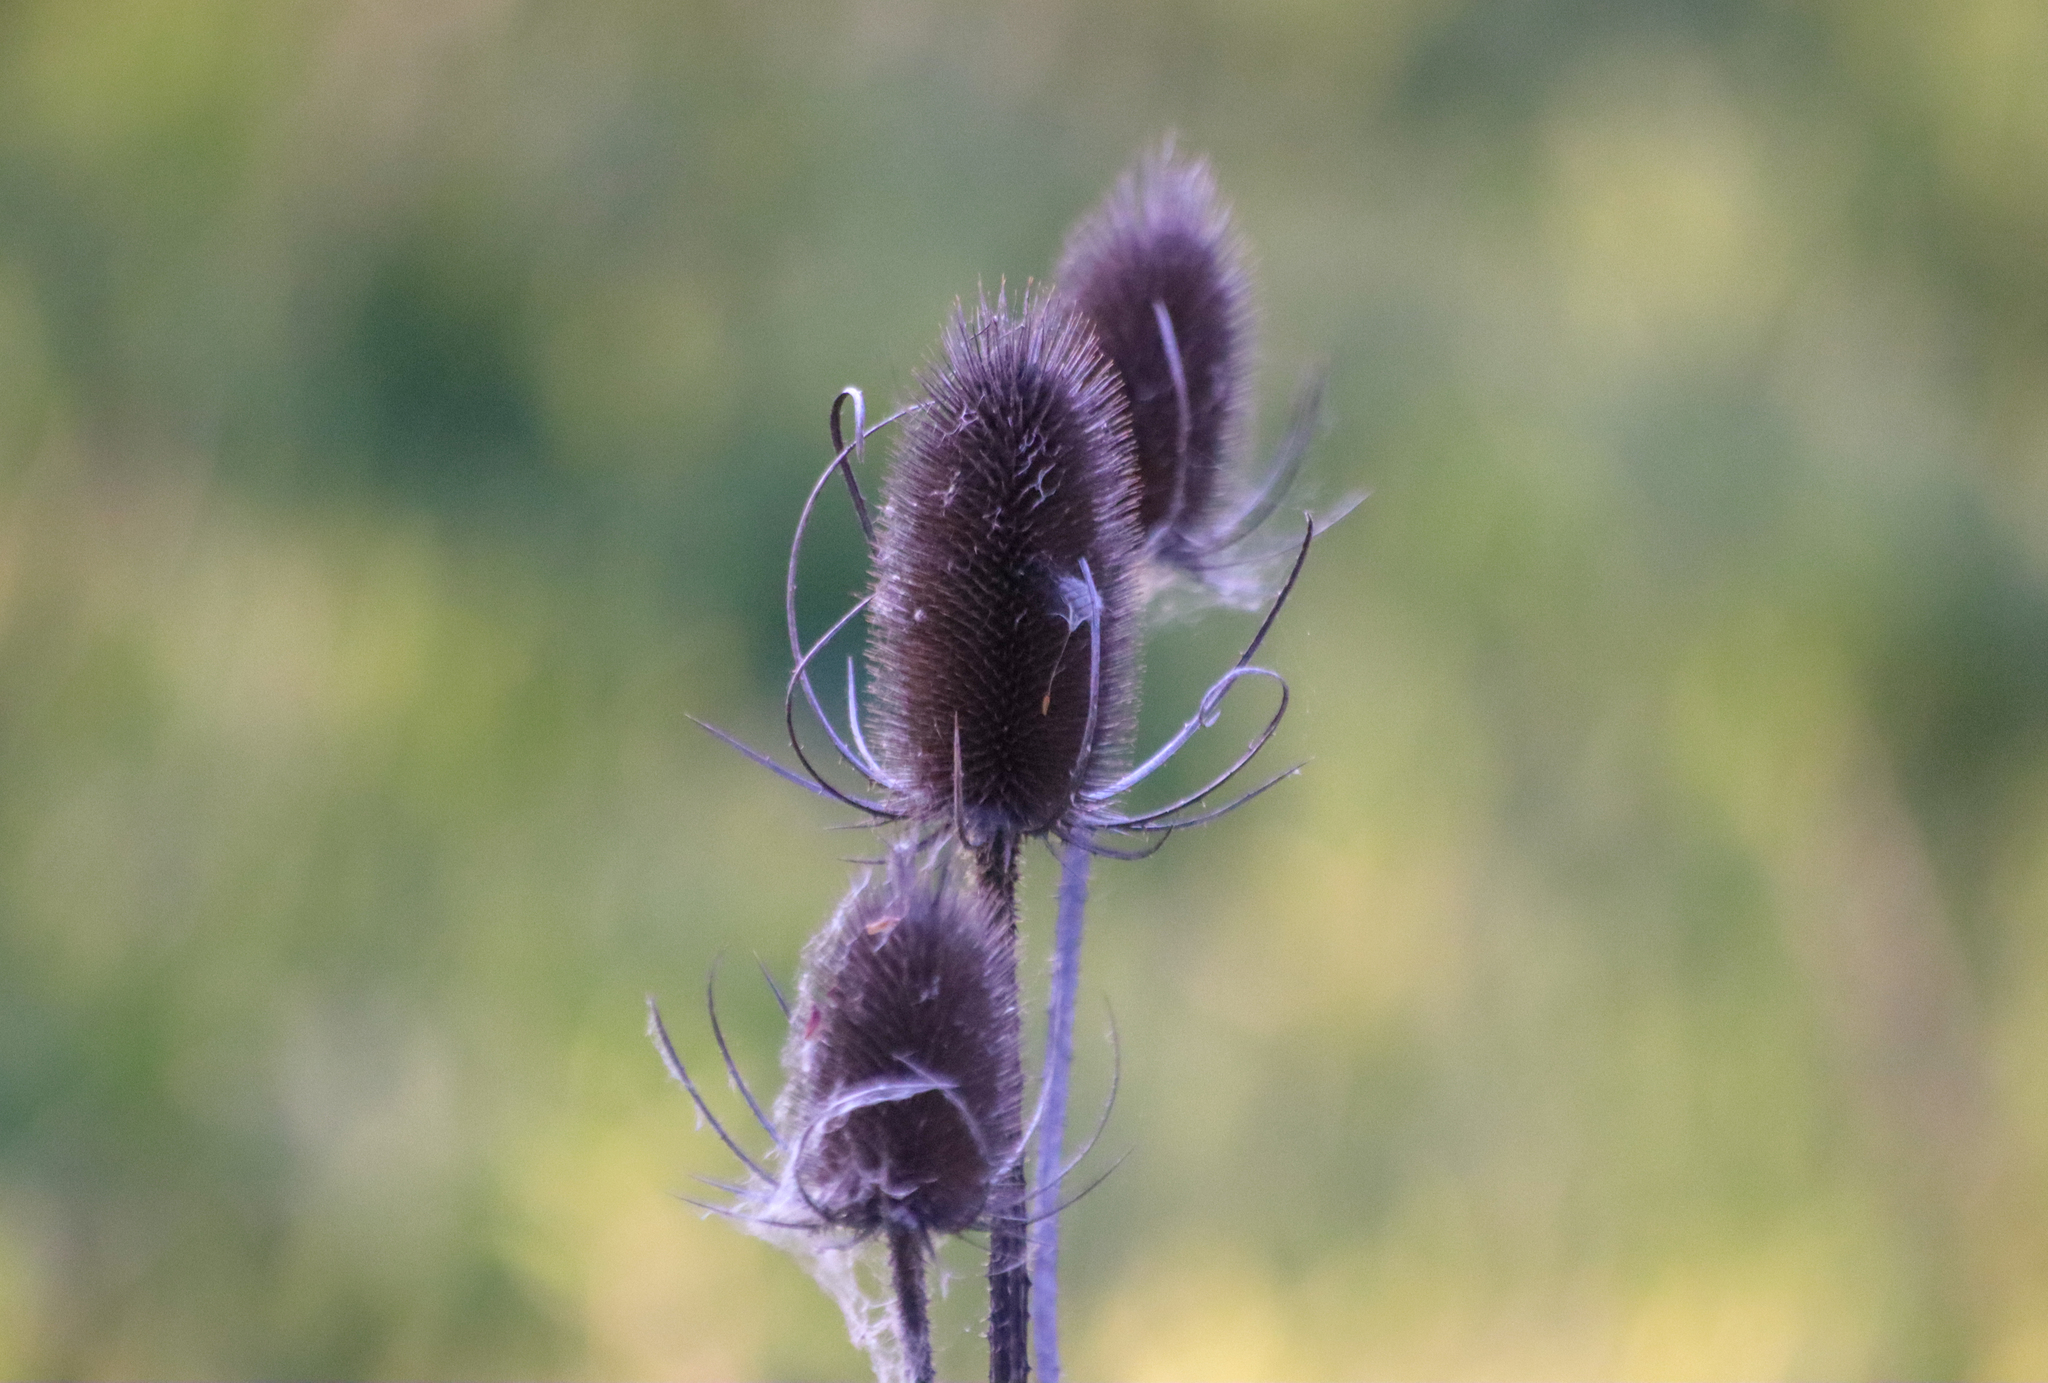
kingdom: Plantae
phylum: Tracheophyta
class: Magnoliopsida
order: Dipsacales
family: Caprifoliaceae
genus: Dipsacus
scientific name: Dipsacus fullonum
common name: Teasel
